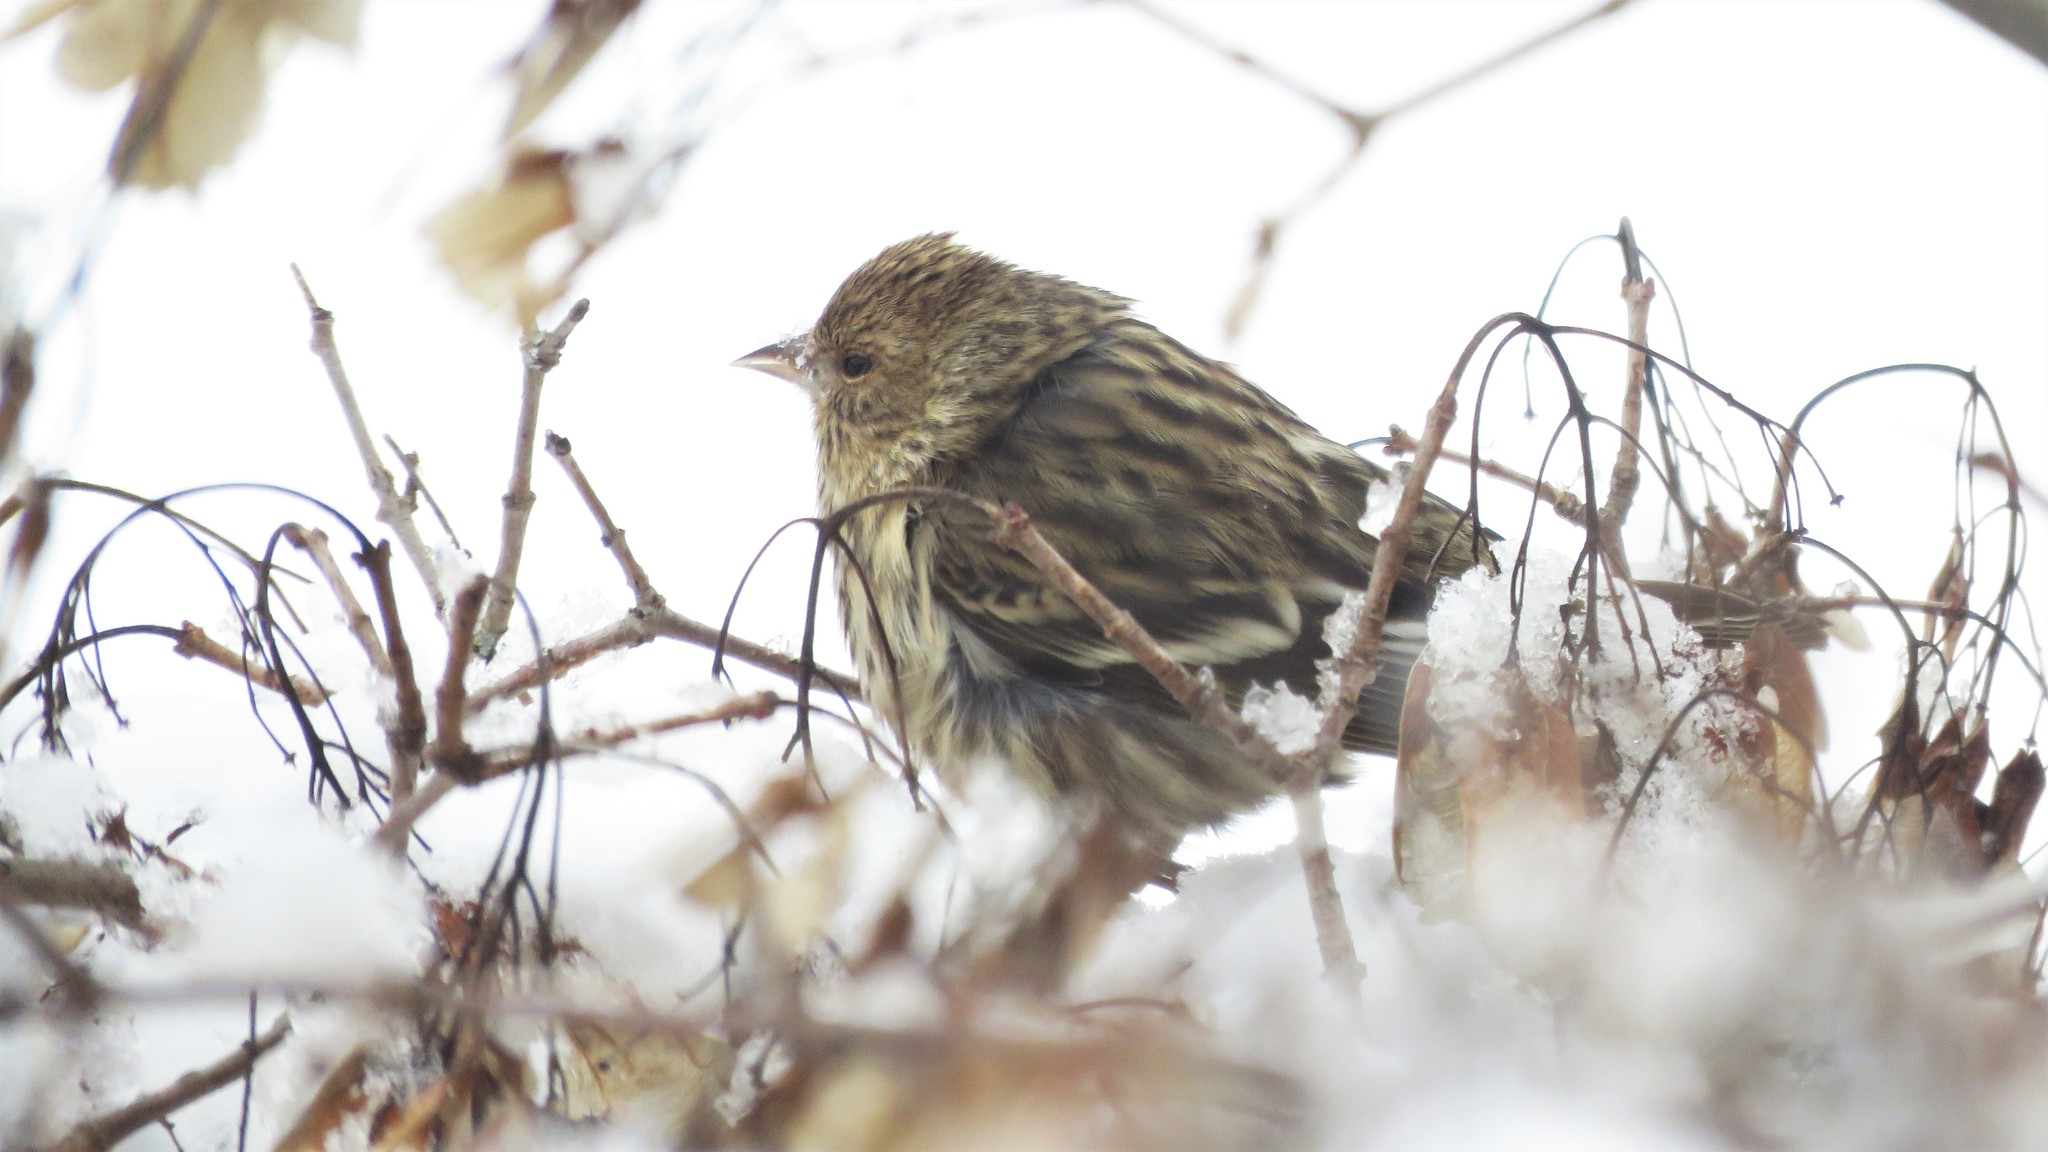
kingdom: Animalia
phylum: Chordata
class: Aves
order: Passeriformes
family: Fringillidae
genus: Spinus
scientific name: Spinus pinus
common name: Pine siskin
